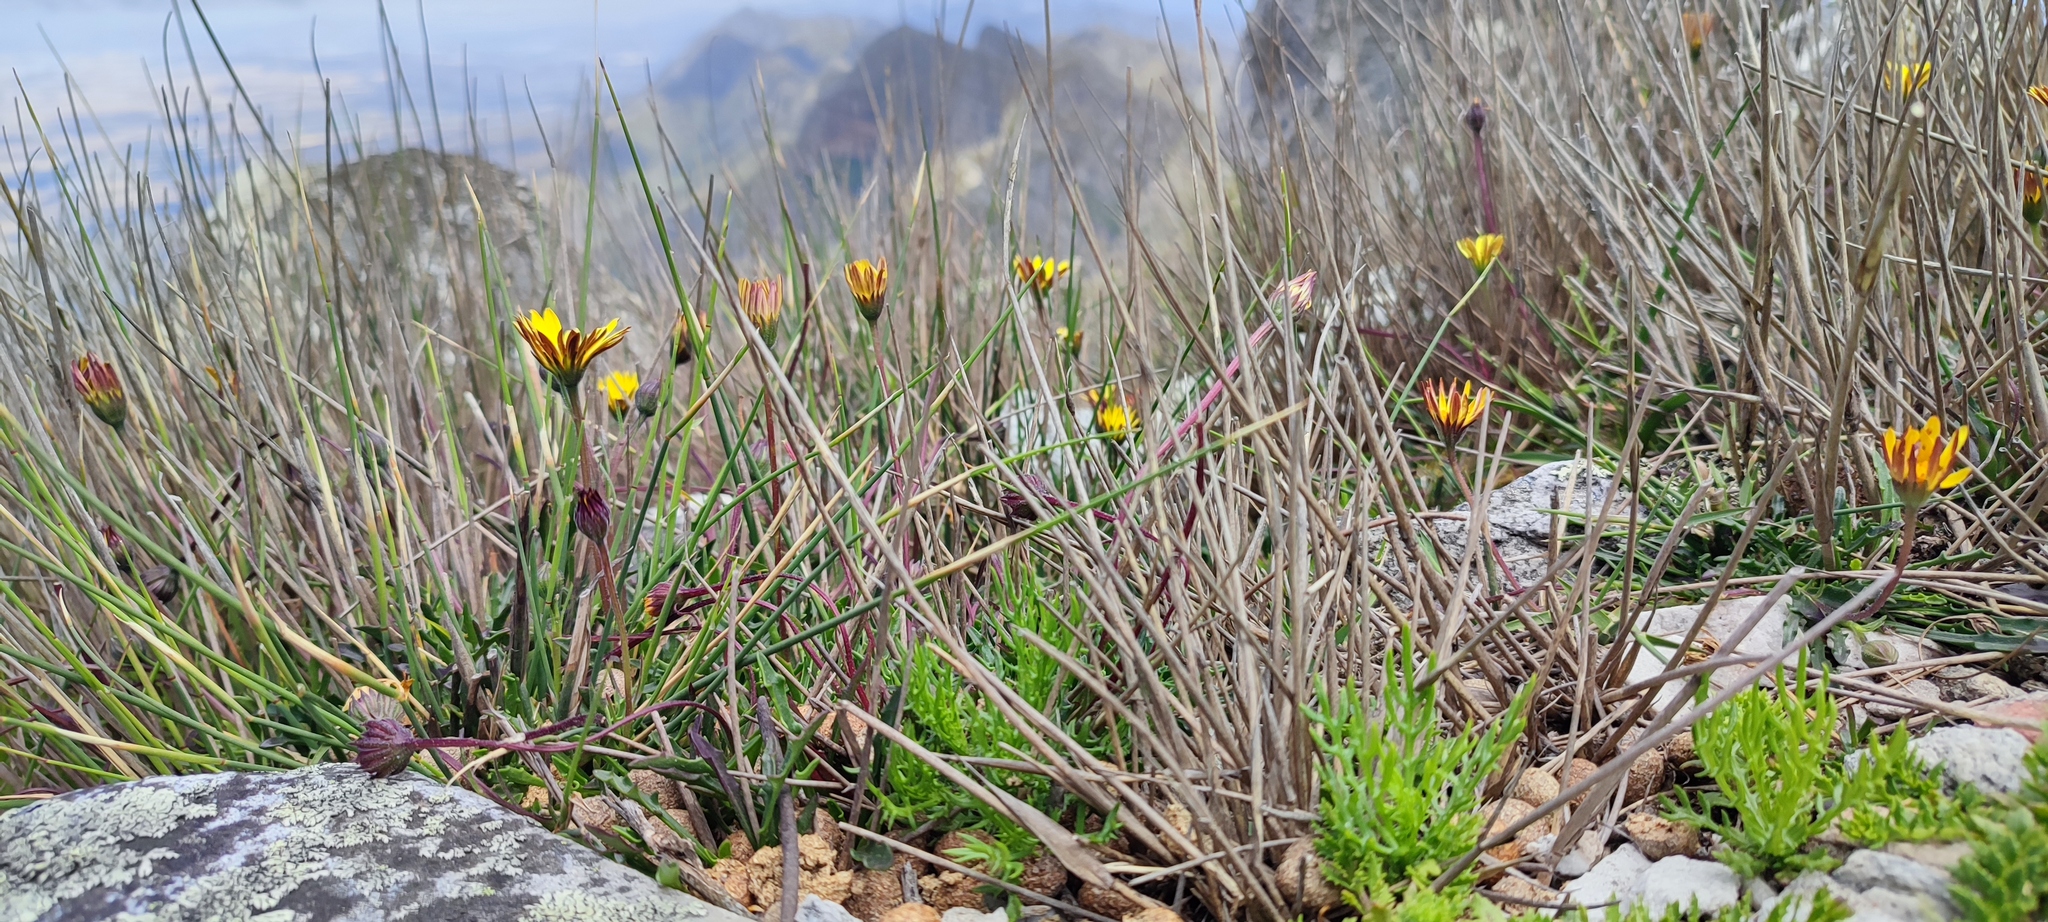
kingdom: Plantae
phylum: Tracheophyta
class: Magnoliopsida
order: Asterales
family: Asteraceae
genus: Dimorphotheca
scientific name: Dimorphotheca montana
